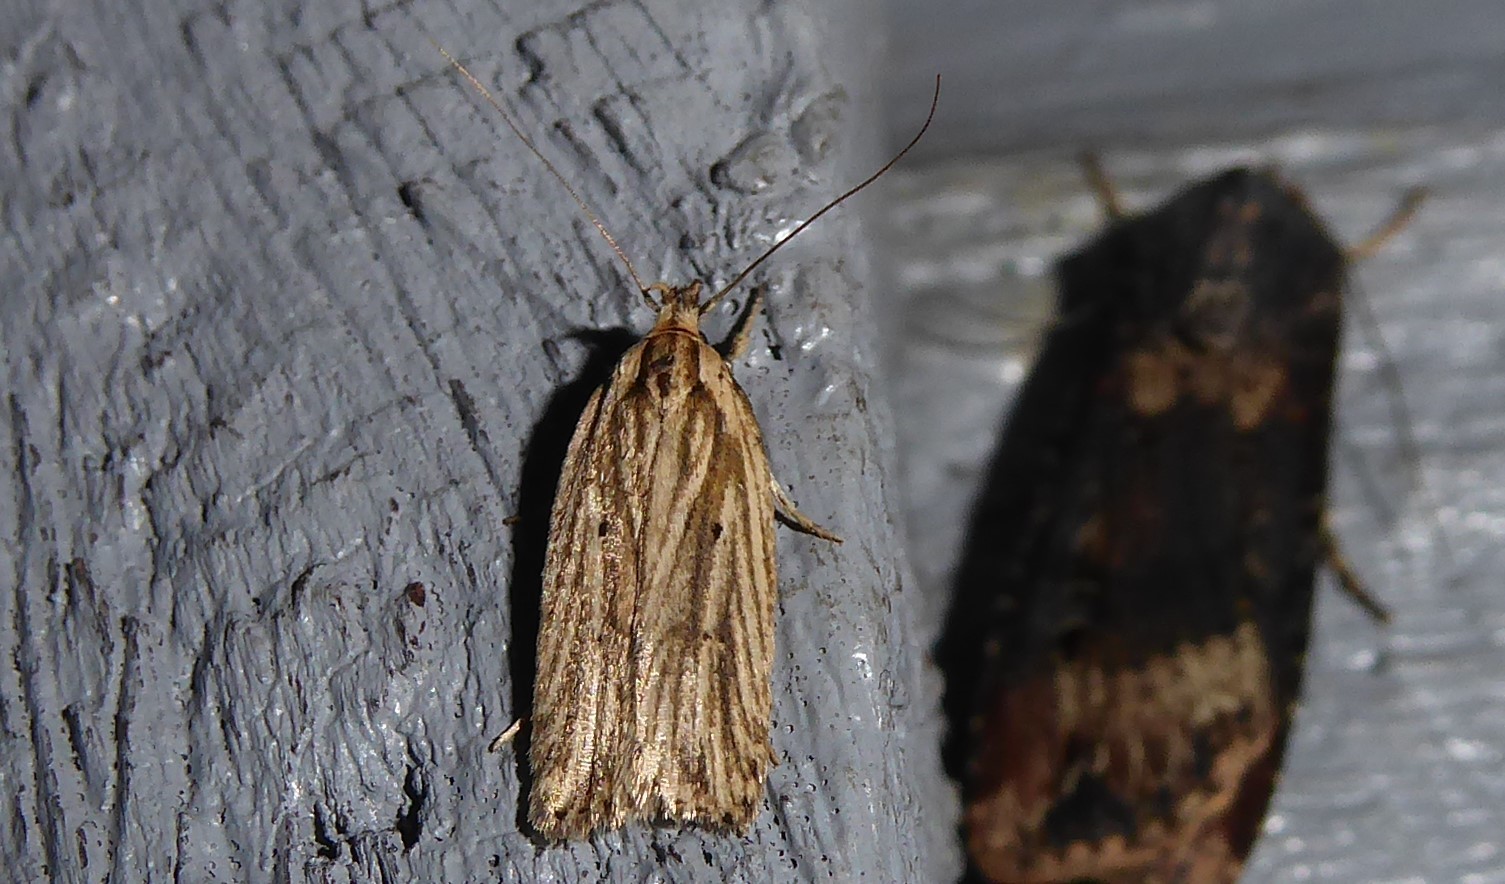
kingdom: Animalia
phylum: Arthropoda
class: Insecta
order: Lepidoptera
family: Depressariidae
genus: Agonopterix
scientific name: Agonopterix
